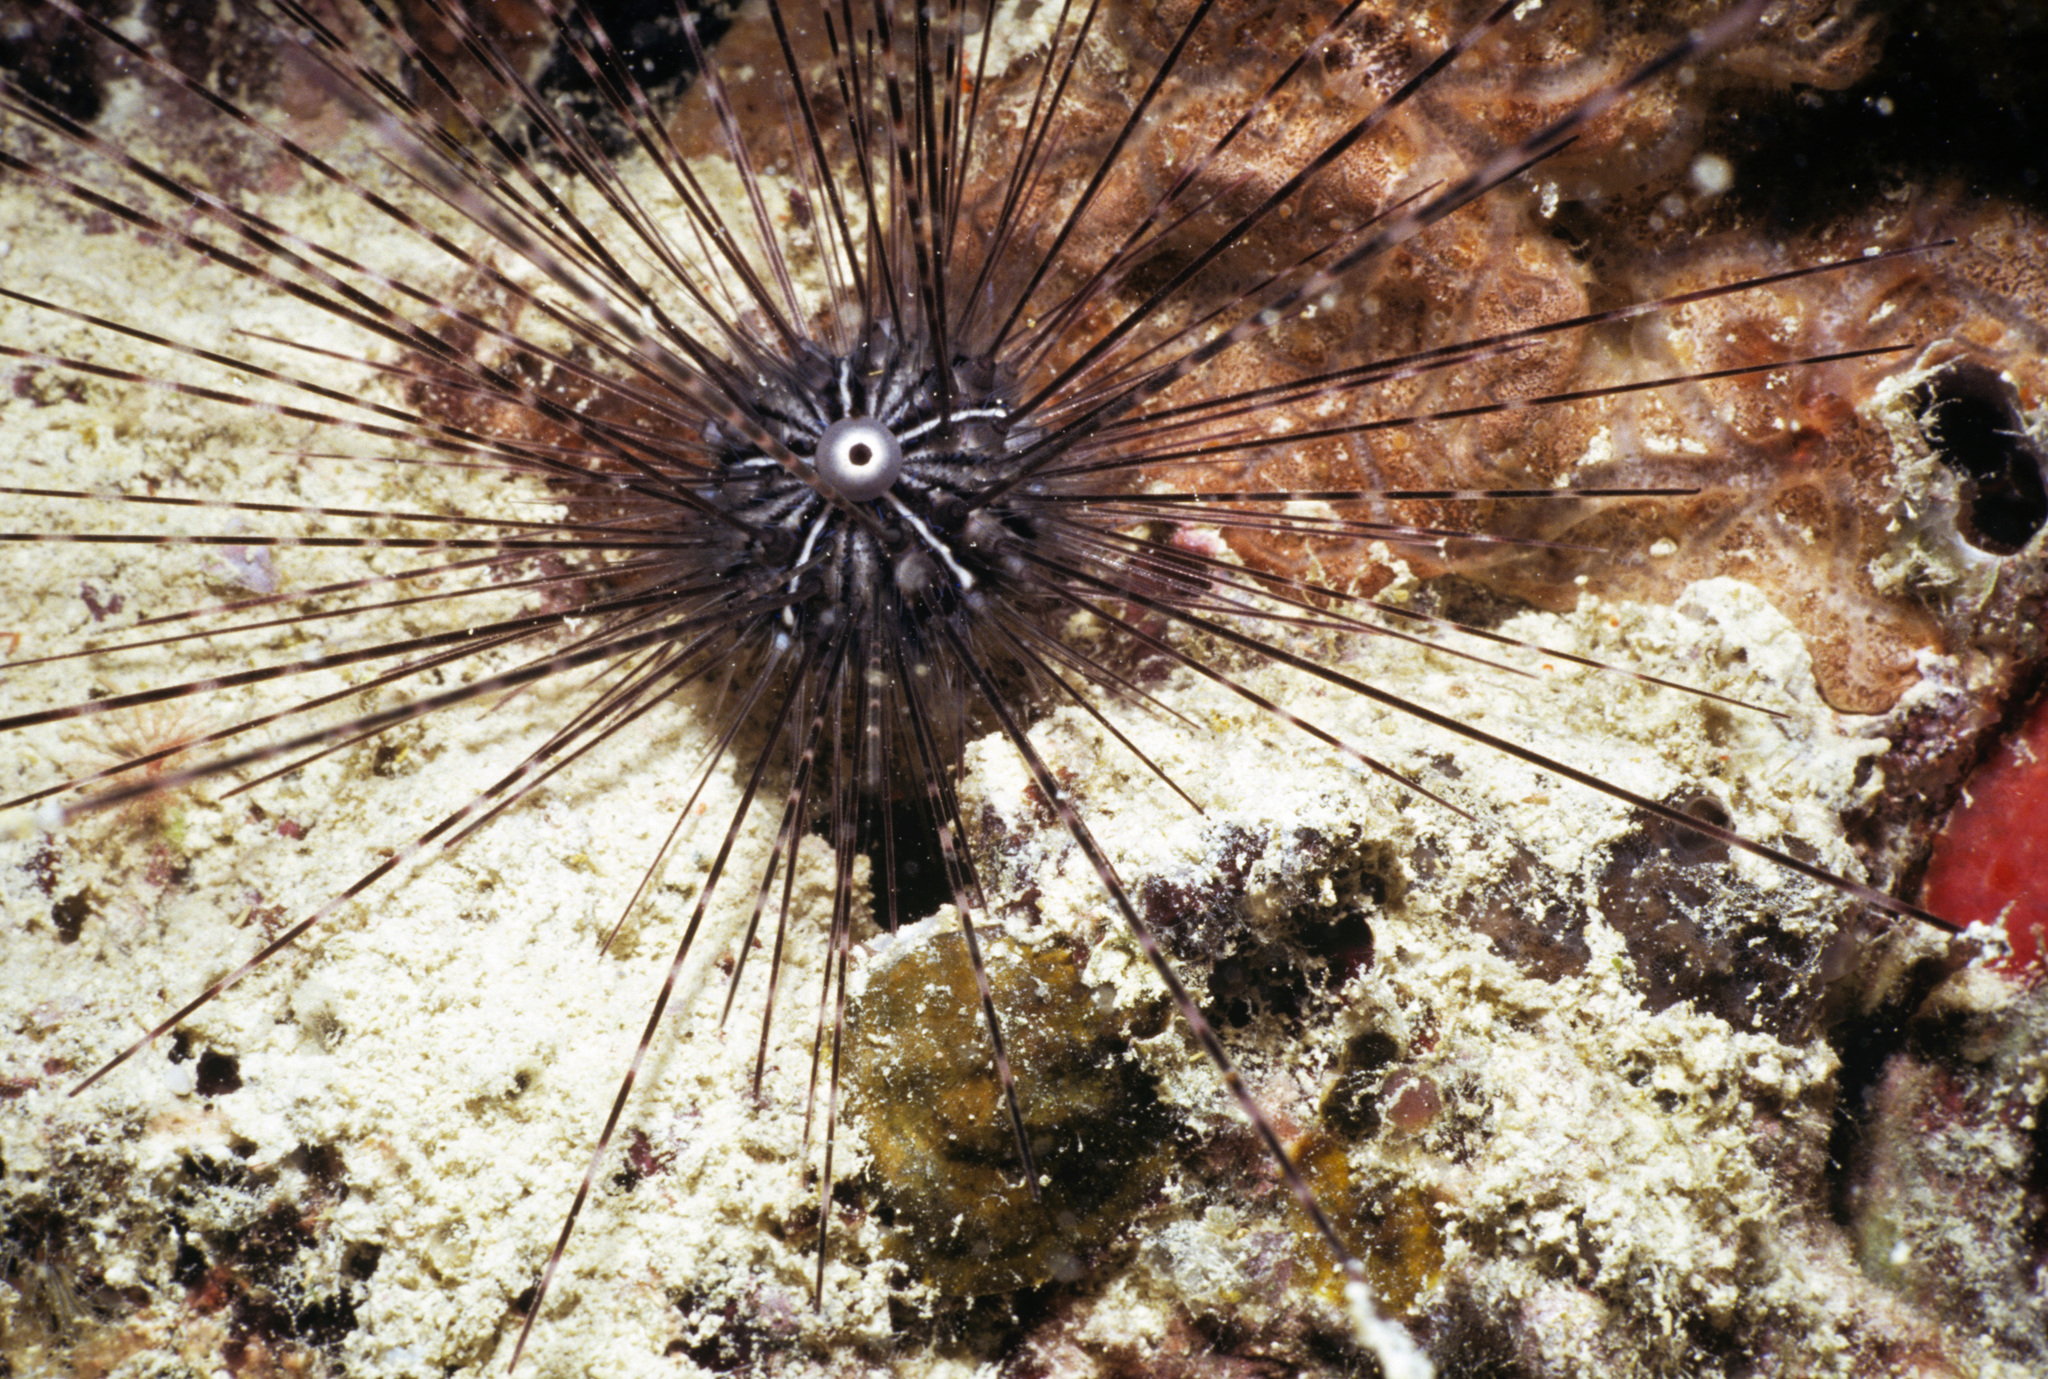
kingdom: Animalia
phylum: Echinodermata
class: Echinoidea
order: Diadematoida
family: Diadematidae
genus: Diadema
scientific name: Diadema setosum
